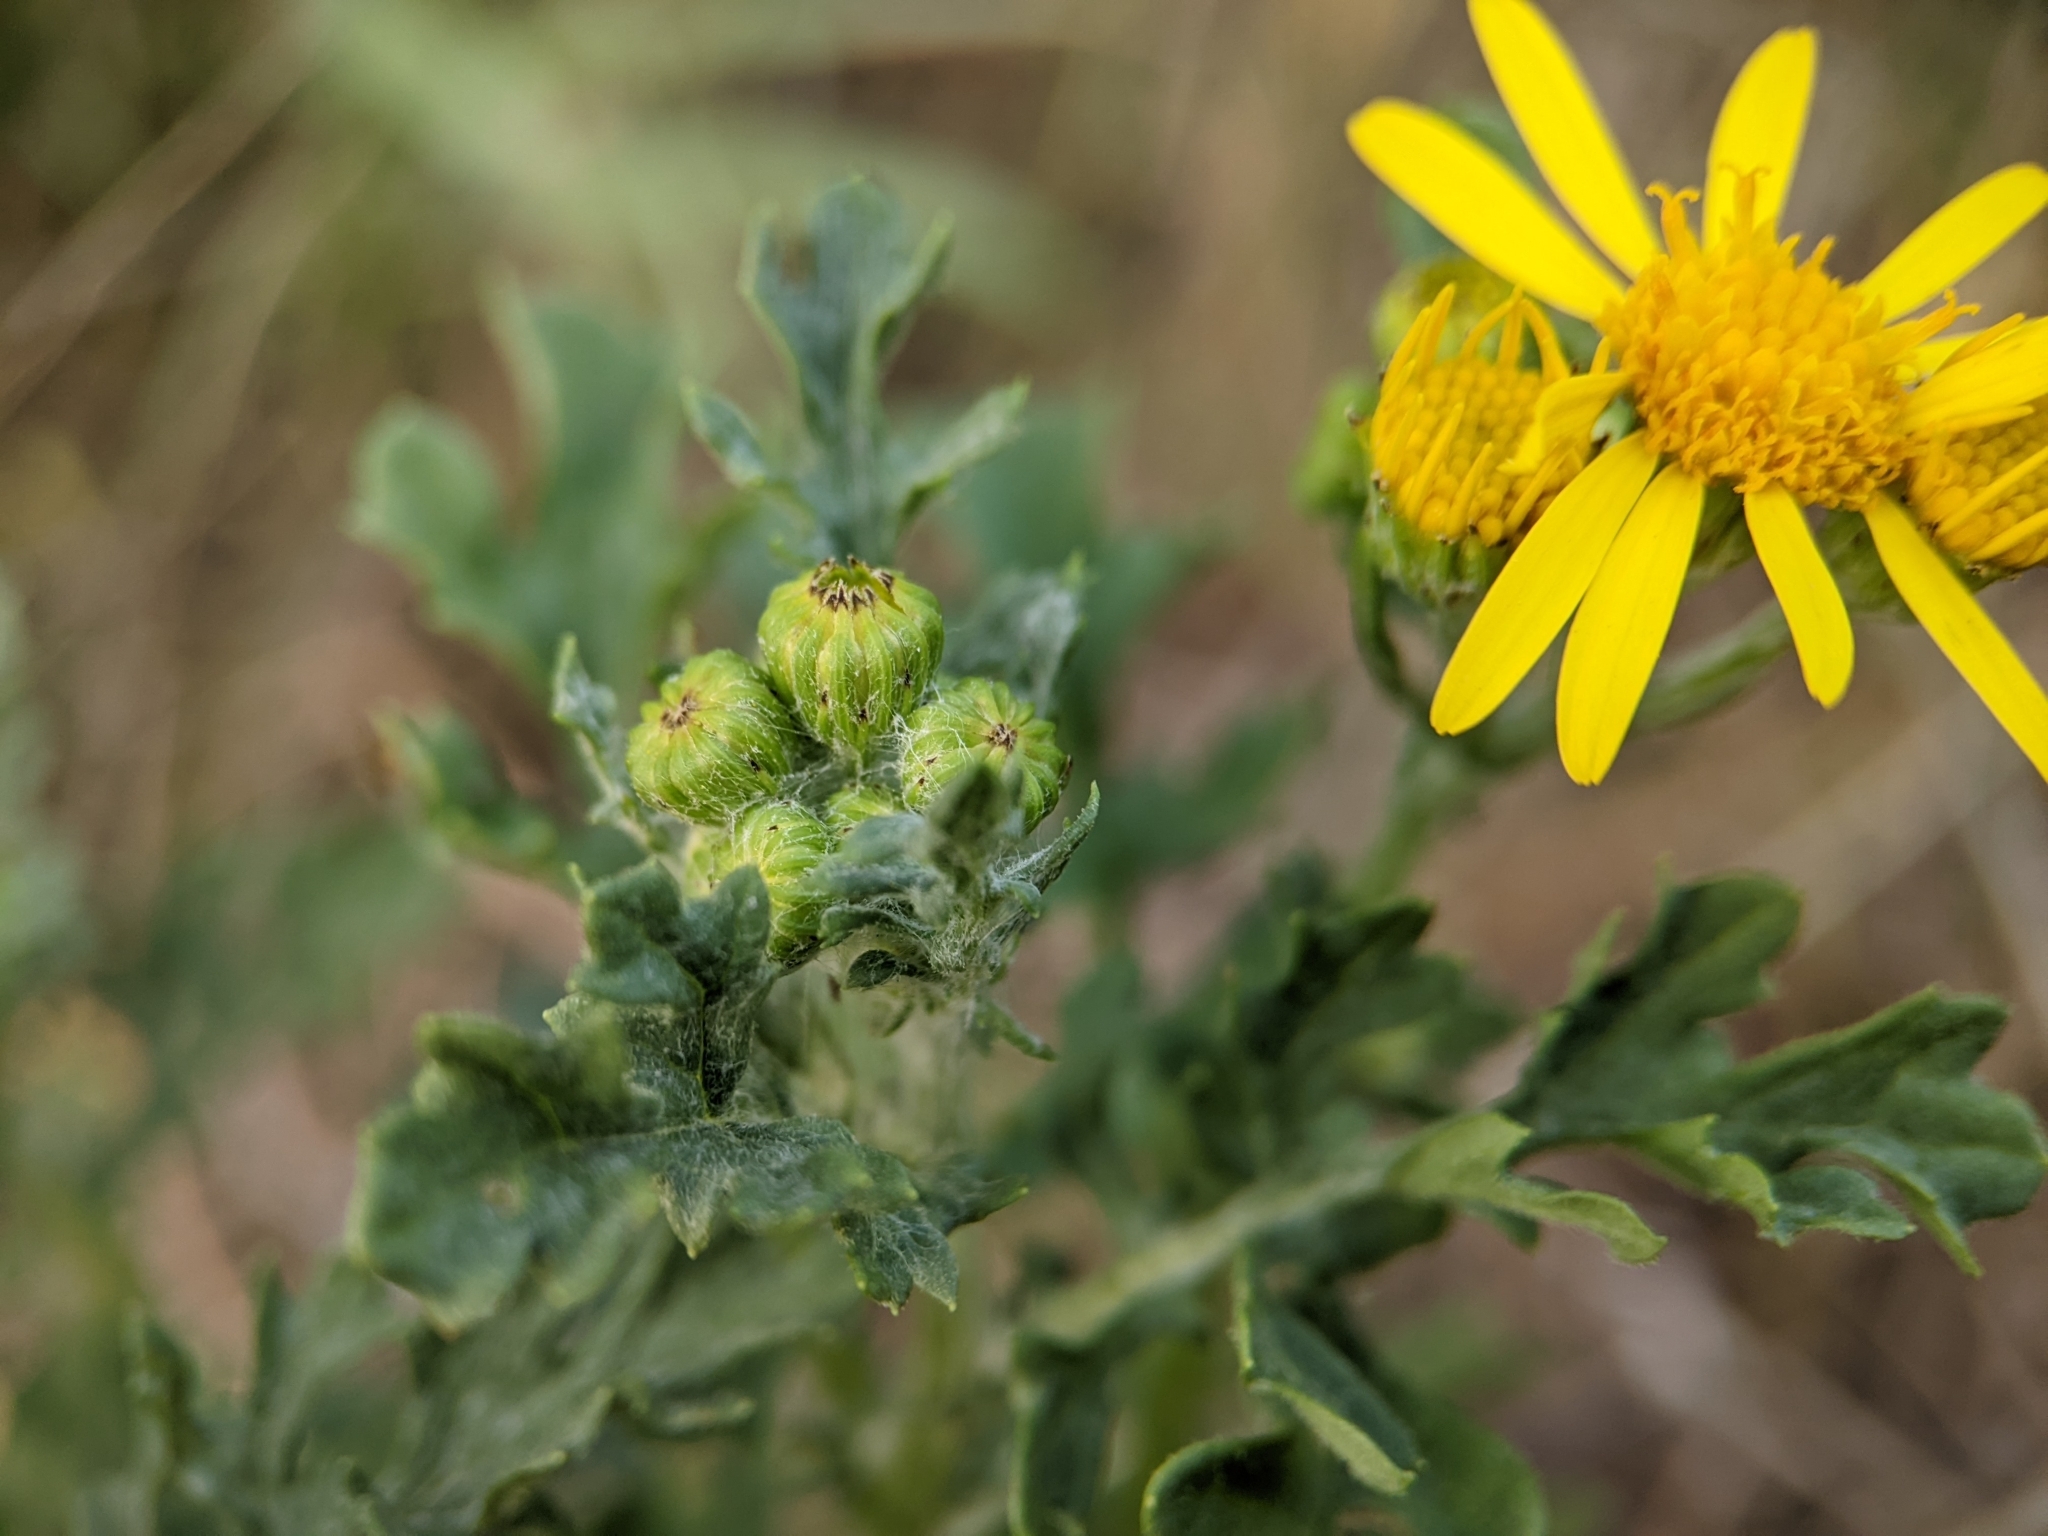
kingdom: Plantae
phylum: Tracheophyta
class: Magnoliopsida
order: Asterales
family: Asteraceae
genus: Jacobaea
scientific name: Jacobaea vulgaris
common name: Stinking willie
